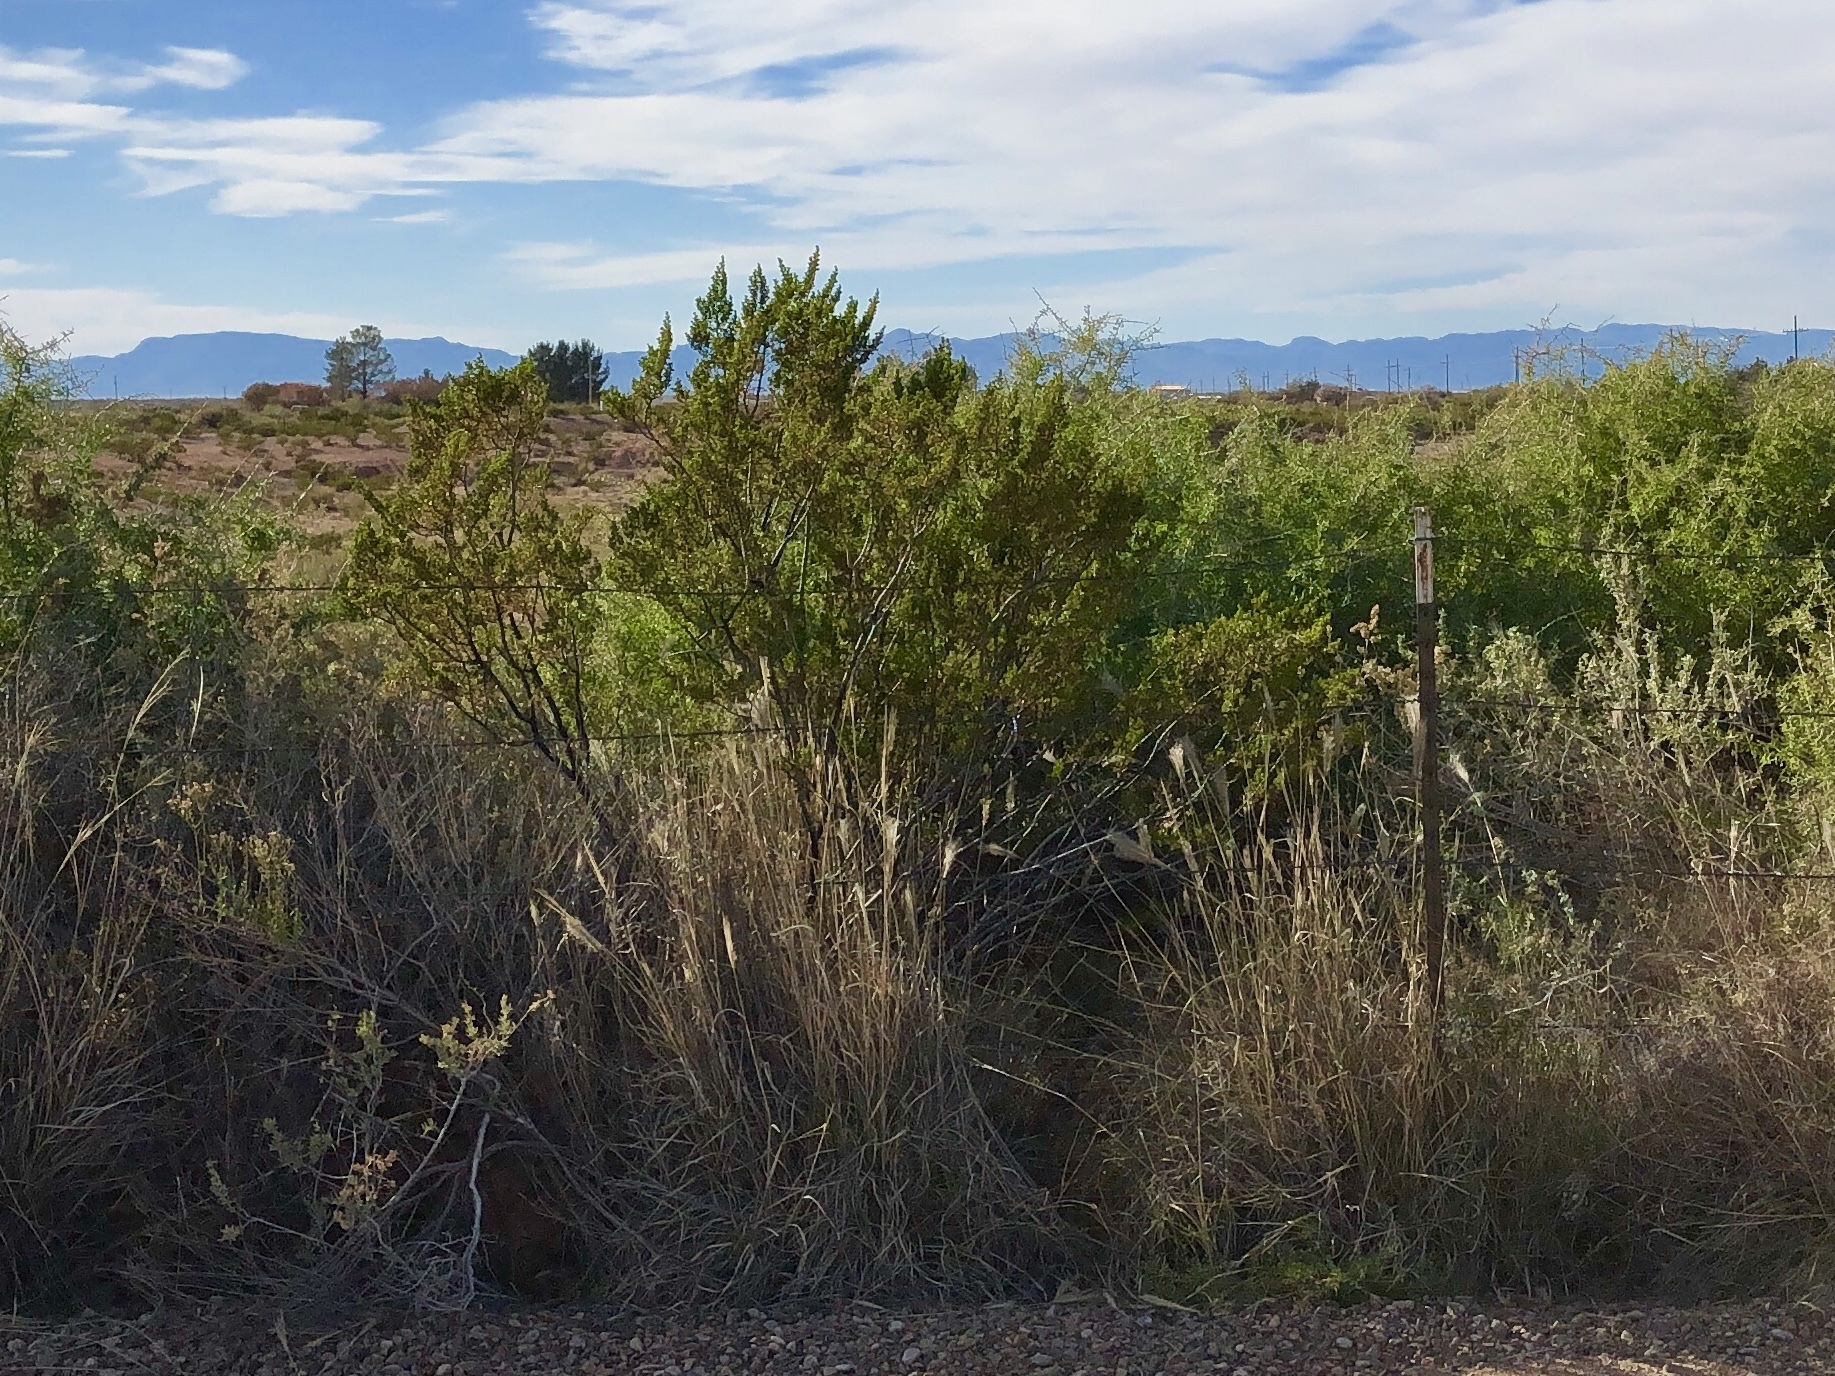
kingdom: Plantae
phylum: Tracheophyta
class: Magnoliopsida
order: Zygophyllales
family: Zygophyllaceae
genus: Larrea
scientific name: Larrea tridentata
